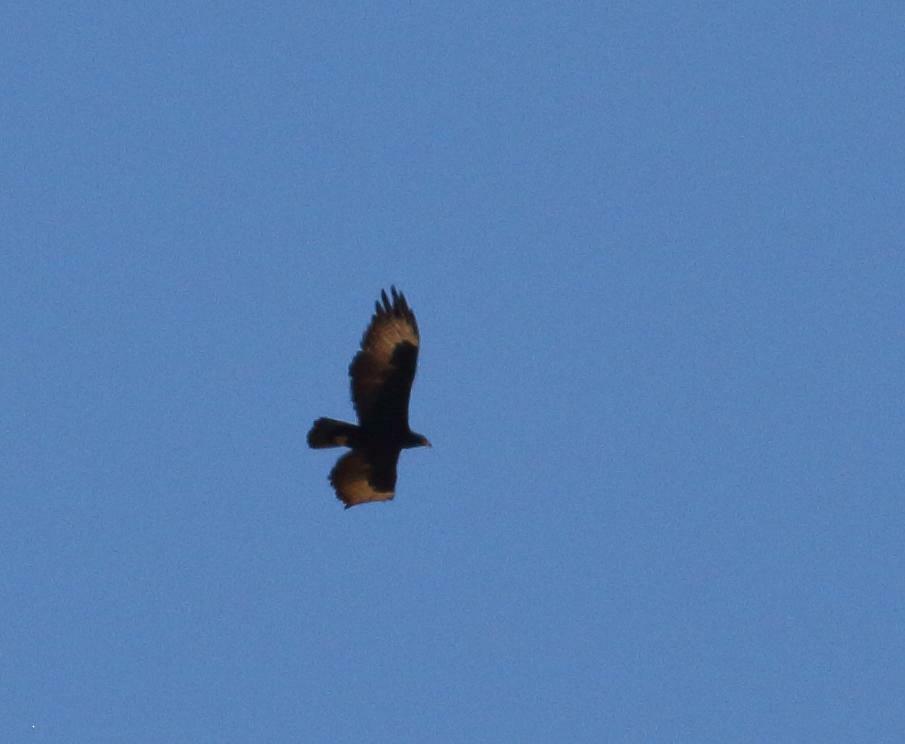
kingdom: Animalia
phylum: Chordata
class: Aves
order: Accipitriformes
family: Accipitridae
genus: Aquila
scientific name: Aquila verreauxii
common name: Verreaux's eagle
